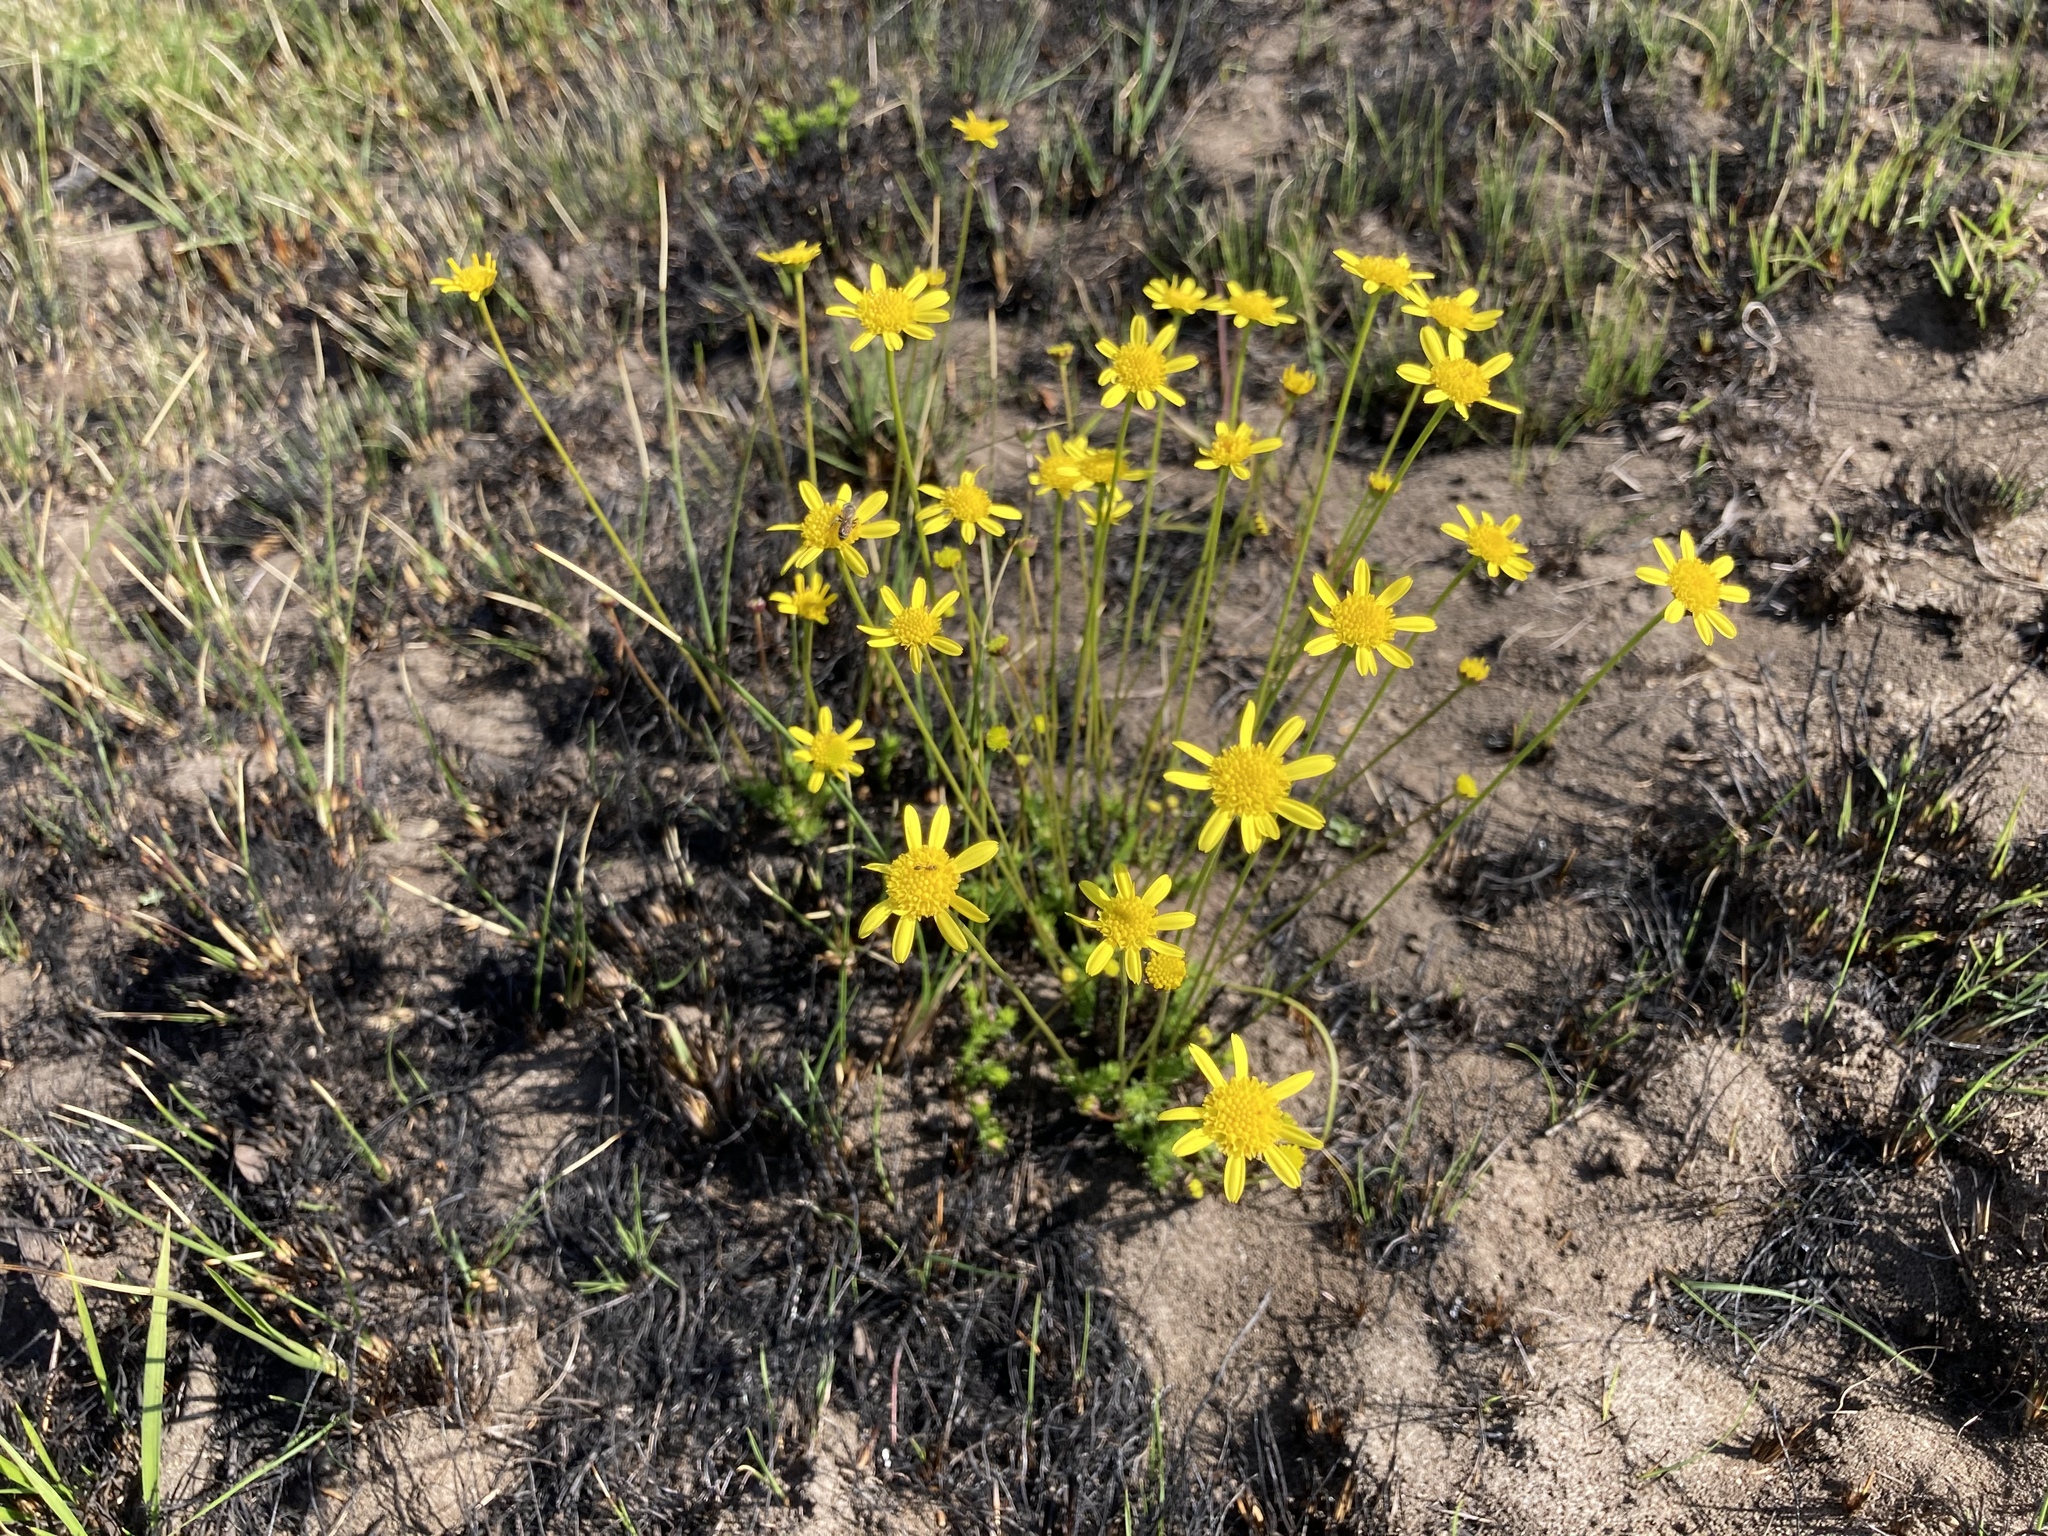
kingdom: Plantae
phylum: Tracheophyta
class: Magnoliopsida
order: Asterales
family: Asteraceae
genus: Euryops
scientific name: Euryops laxus
